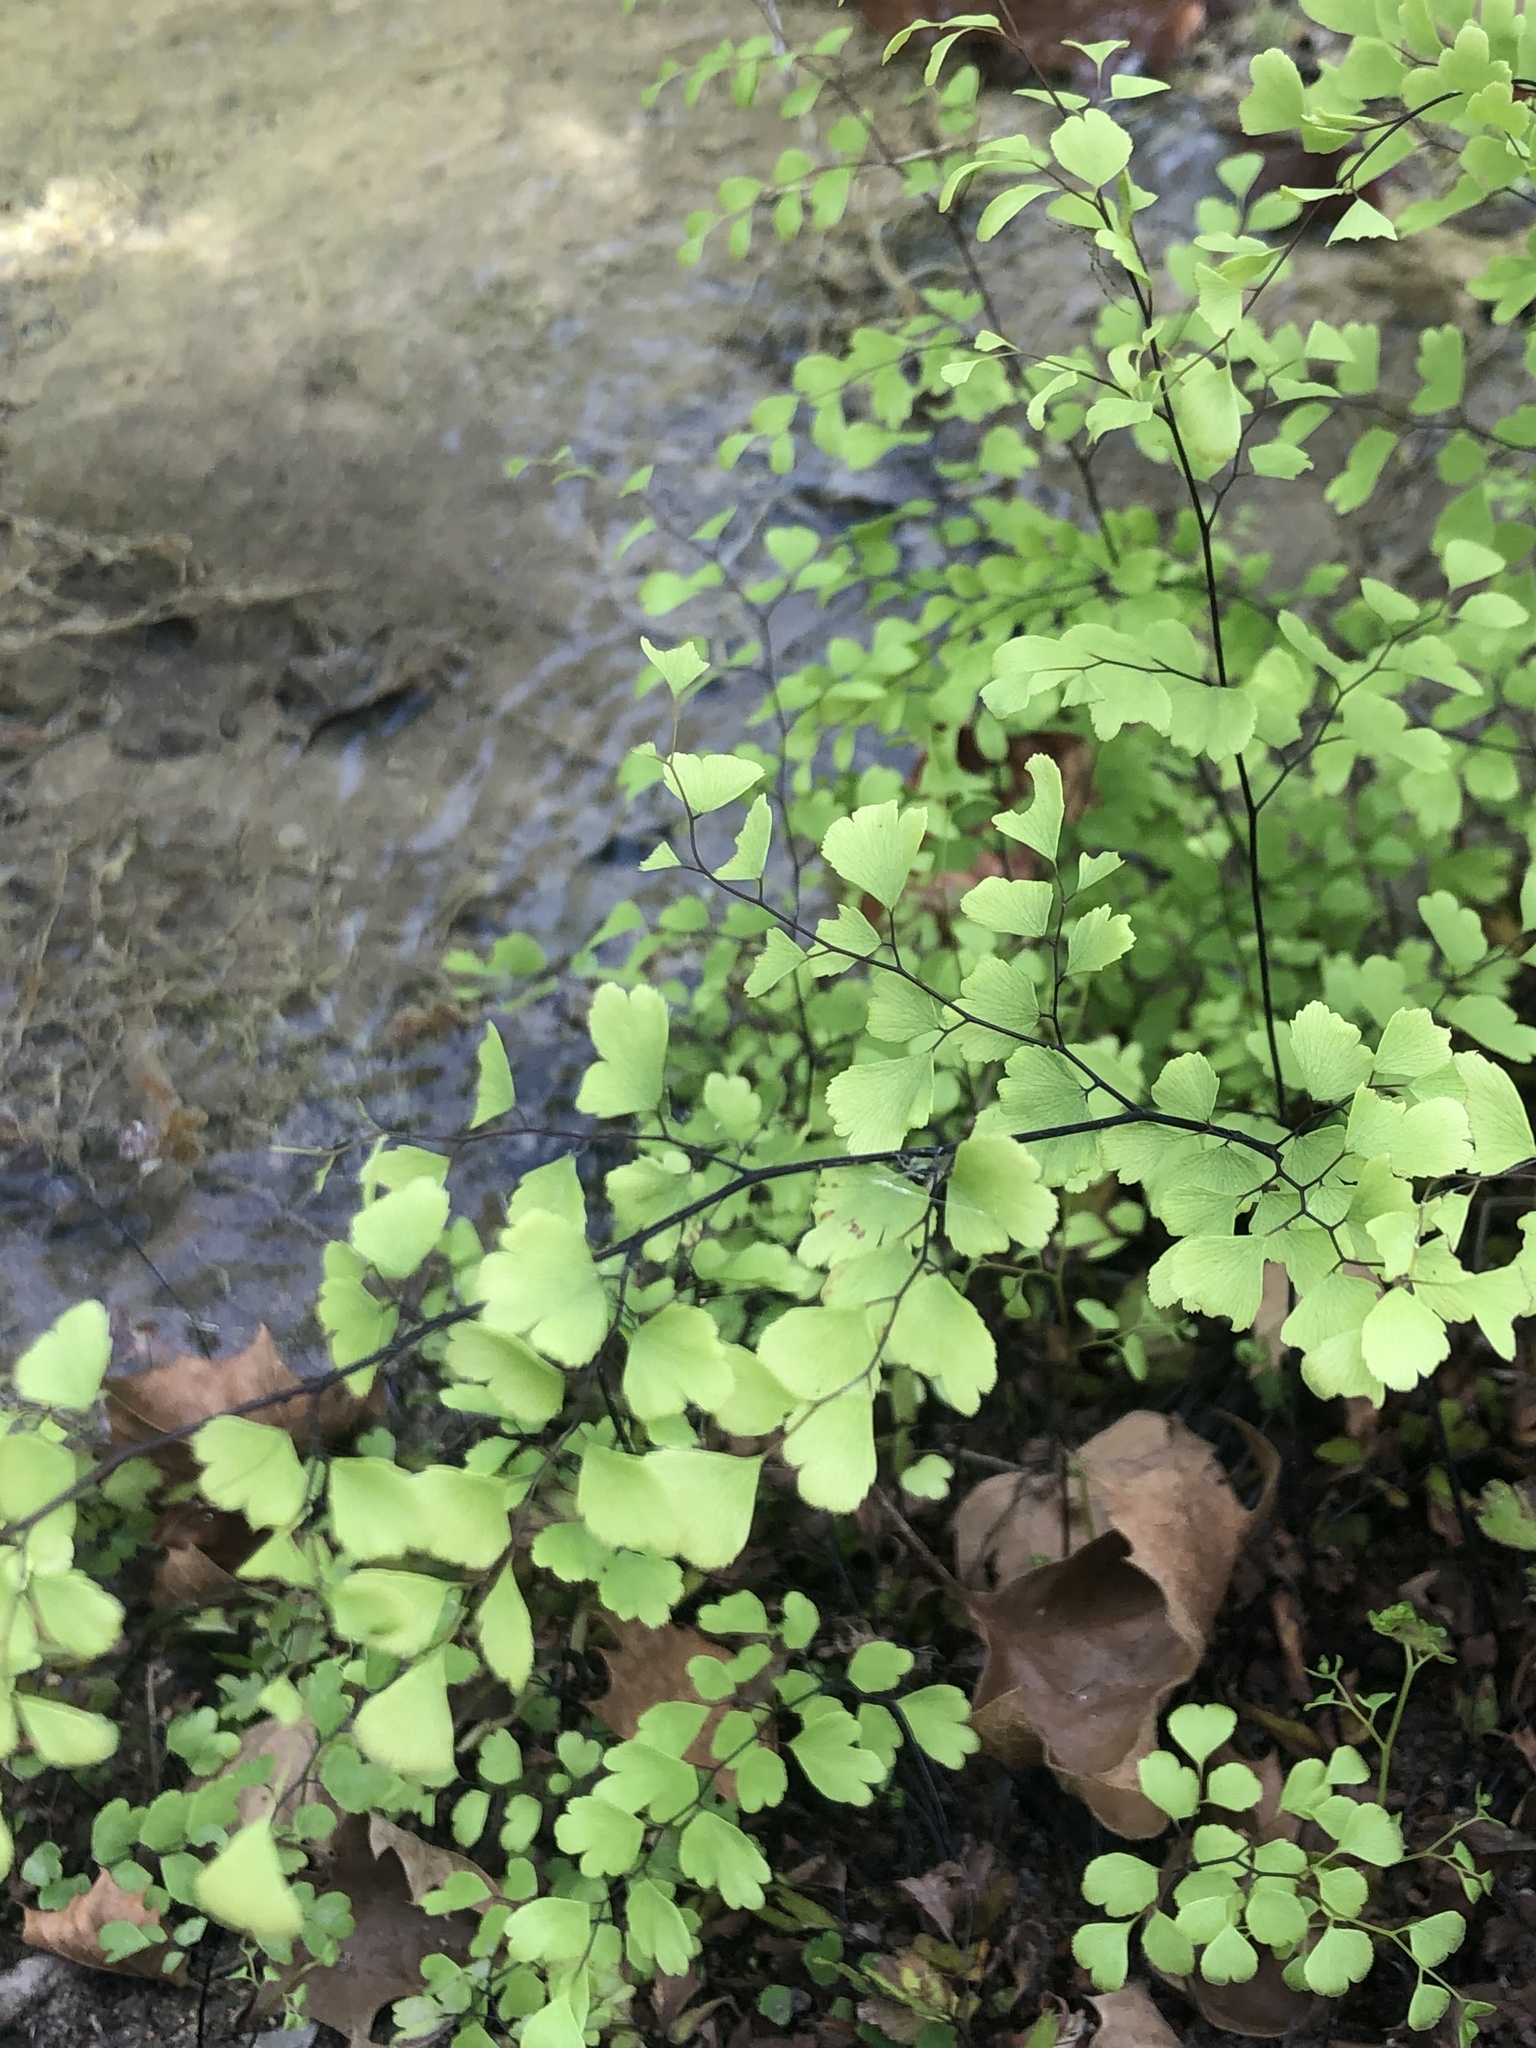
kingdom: Plantae
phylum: Tracheophyta
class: Polypodiopsida
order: Polypodiales
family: Pteridaceae
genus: Adiantum
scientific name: Adiantum capillus-veneris
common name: Maidenhair fern
